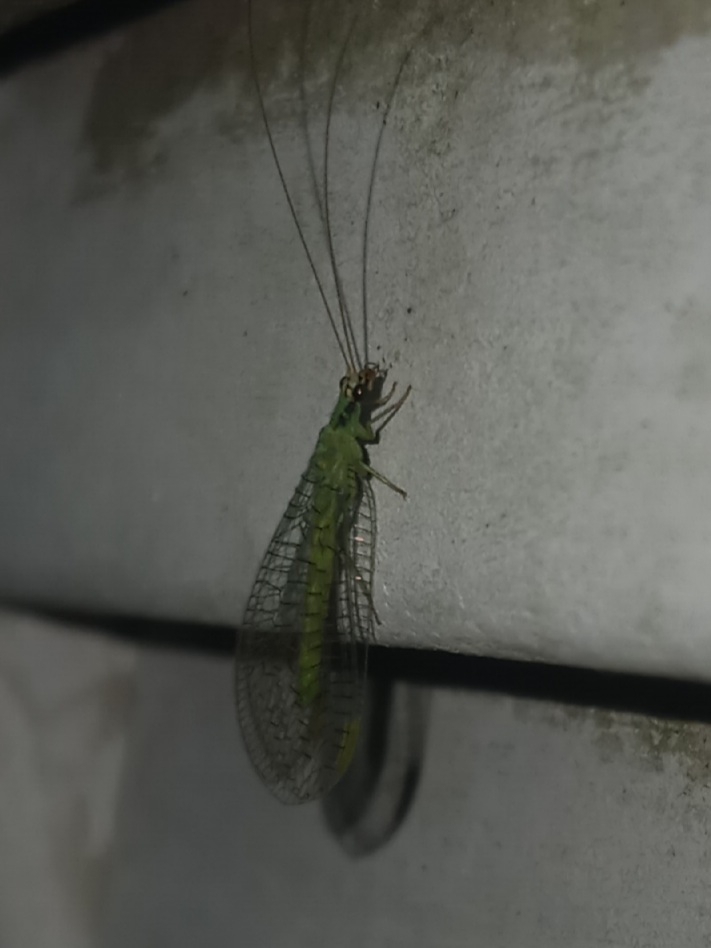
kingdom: Animalia
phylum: Arthropoda
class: Insecta
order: Neuroptera
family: Chrysopidae
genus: Chrysopa
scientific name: Chrysopa incompleta
